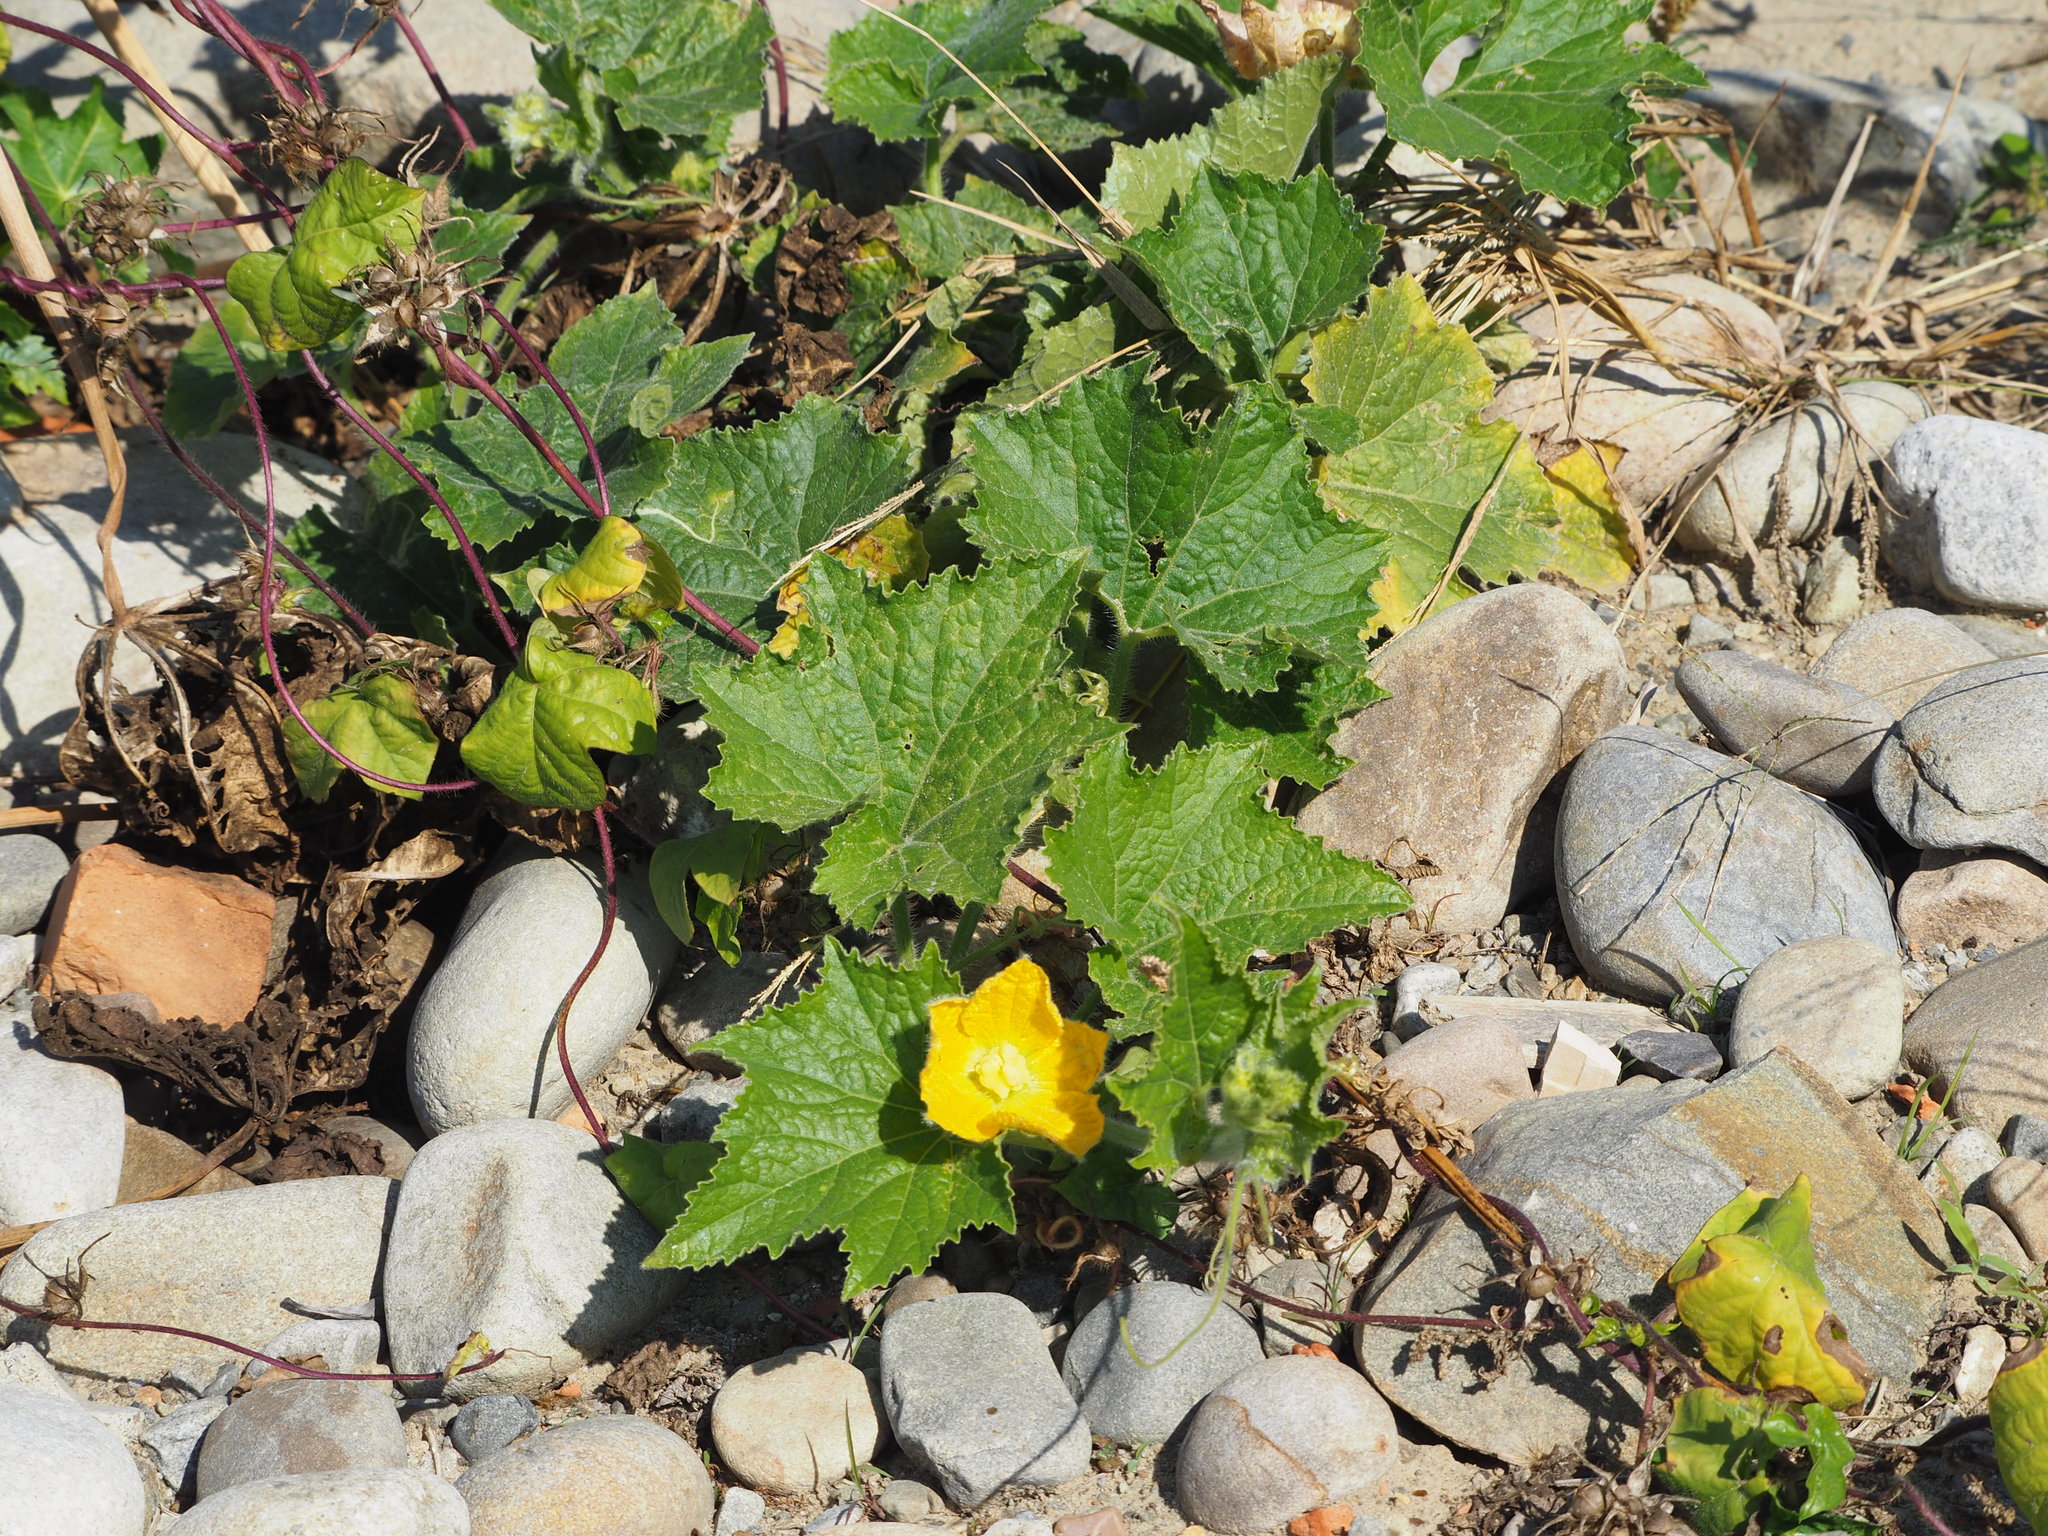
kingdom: Plantae
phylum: Tracheophyta
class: Magnoliopsida
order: Cucurbitales
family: Cucurbitaceae
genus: Benincasa
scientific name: Benincasa hispida
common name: Chinese-watermelon
